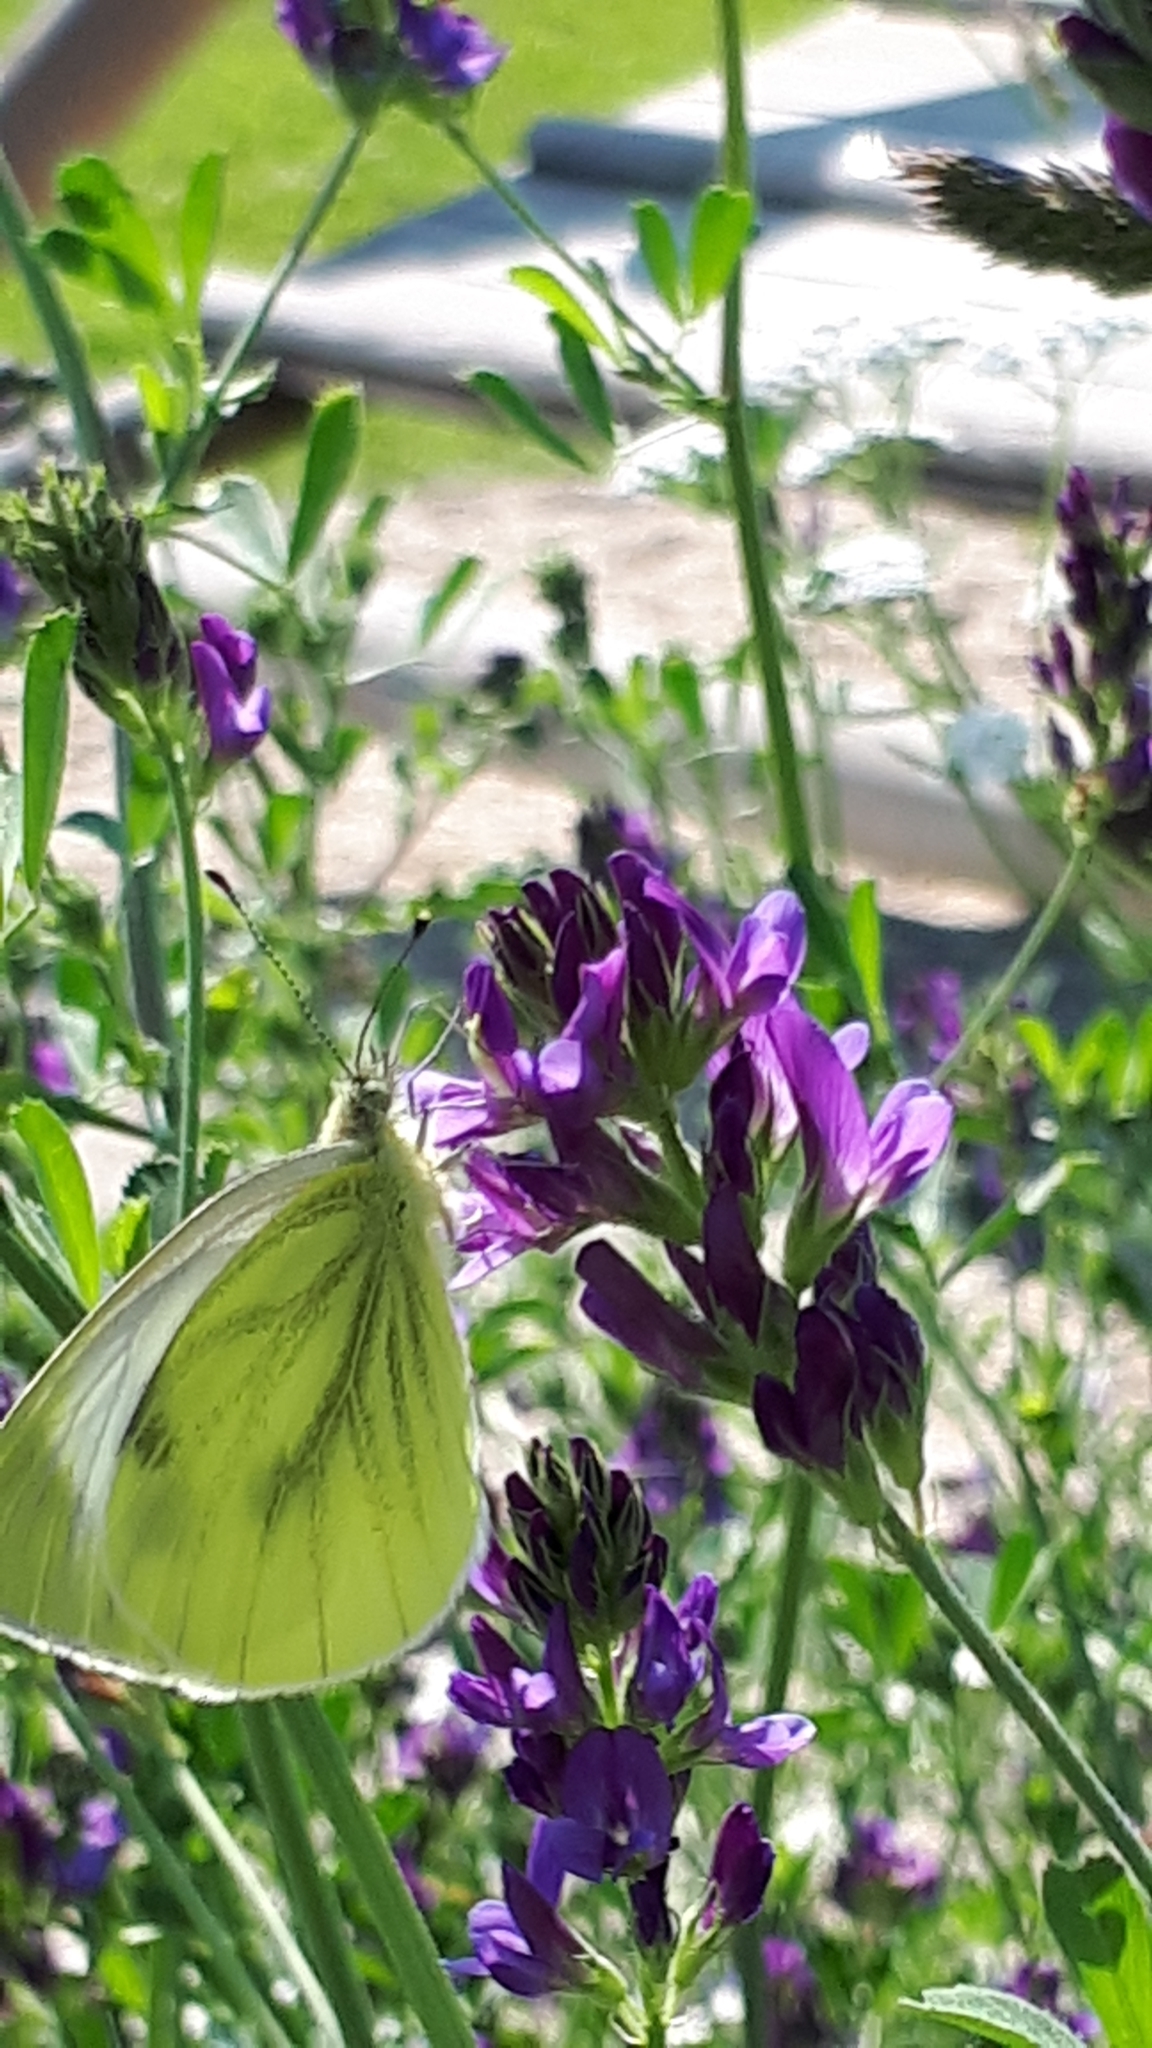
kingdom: Animalia
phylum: Arthropoda
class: Insecta
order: Lepidoptera
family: Pieridae
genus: Pieris
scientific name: Pieris napi
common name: Green-veined white
